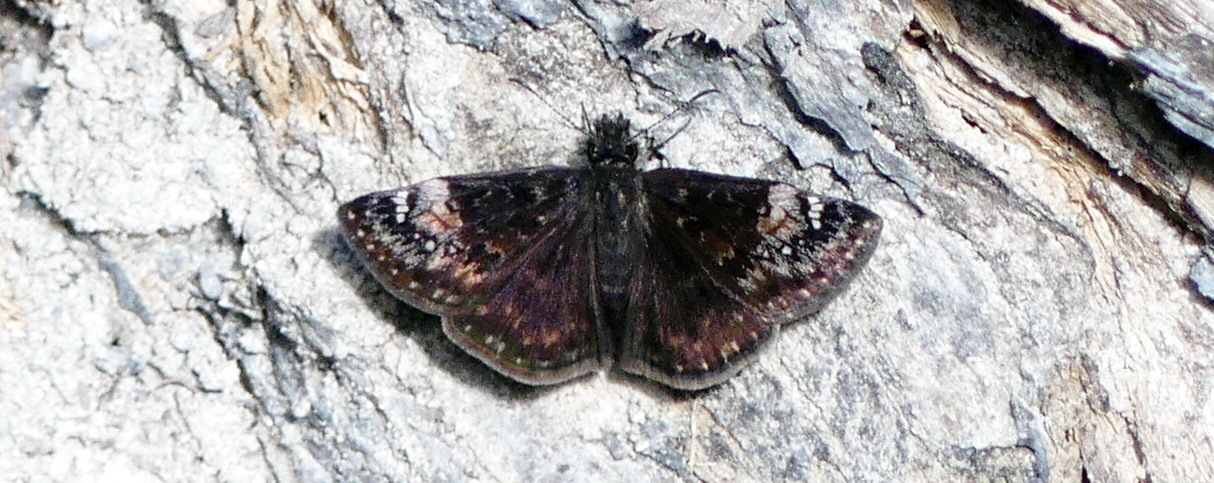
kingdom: Animalia
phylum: Arthropoda
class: Insecta
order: Lepidoptera
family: Hesperiidae
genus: Erynnis
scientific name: Erynnis lucilius
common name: Columbine duskywing
